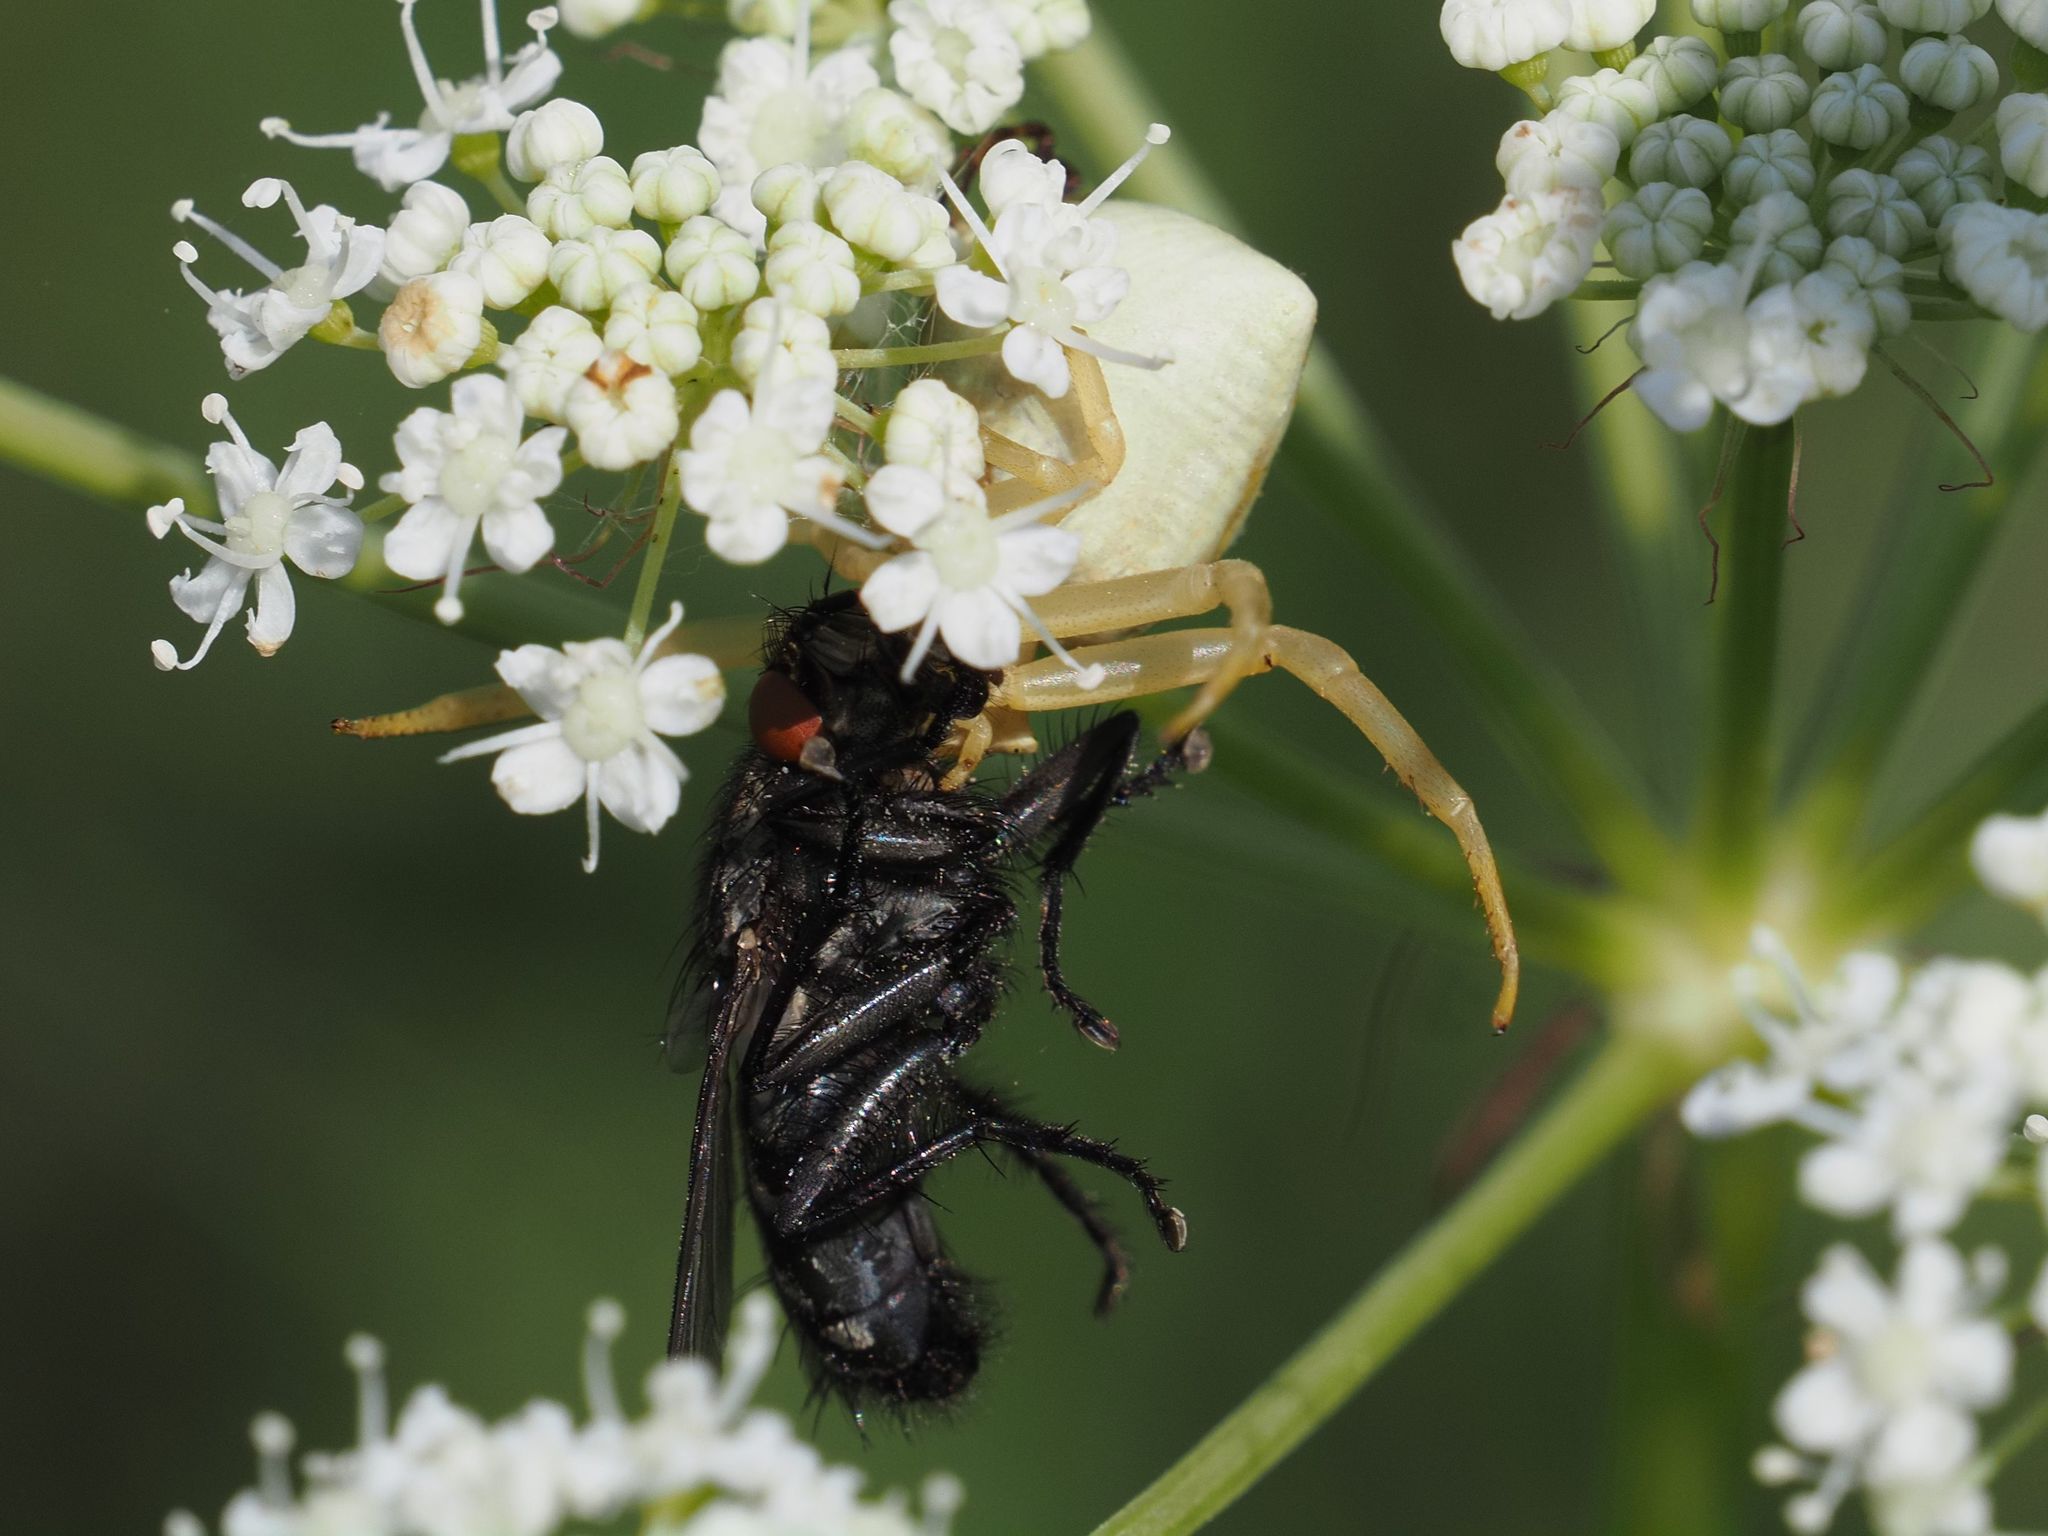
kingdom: Animalia
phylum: Arthropoda
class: Arachnida
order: Araneae
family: Thomisidae
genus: Thomisus
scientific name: Thomisus onustus
